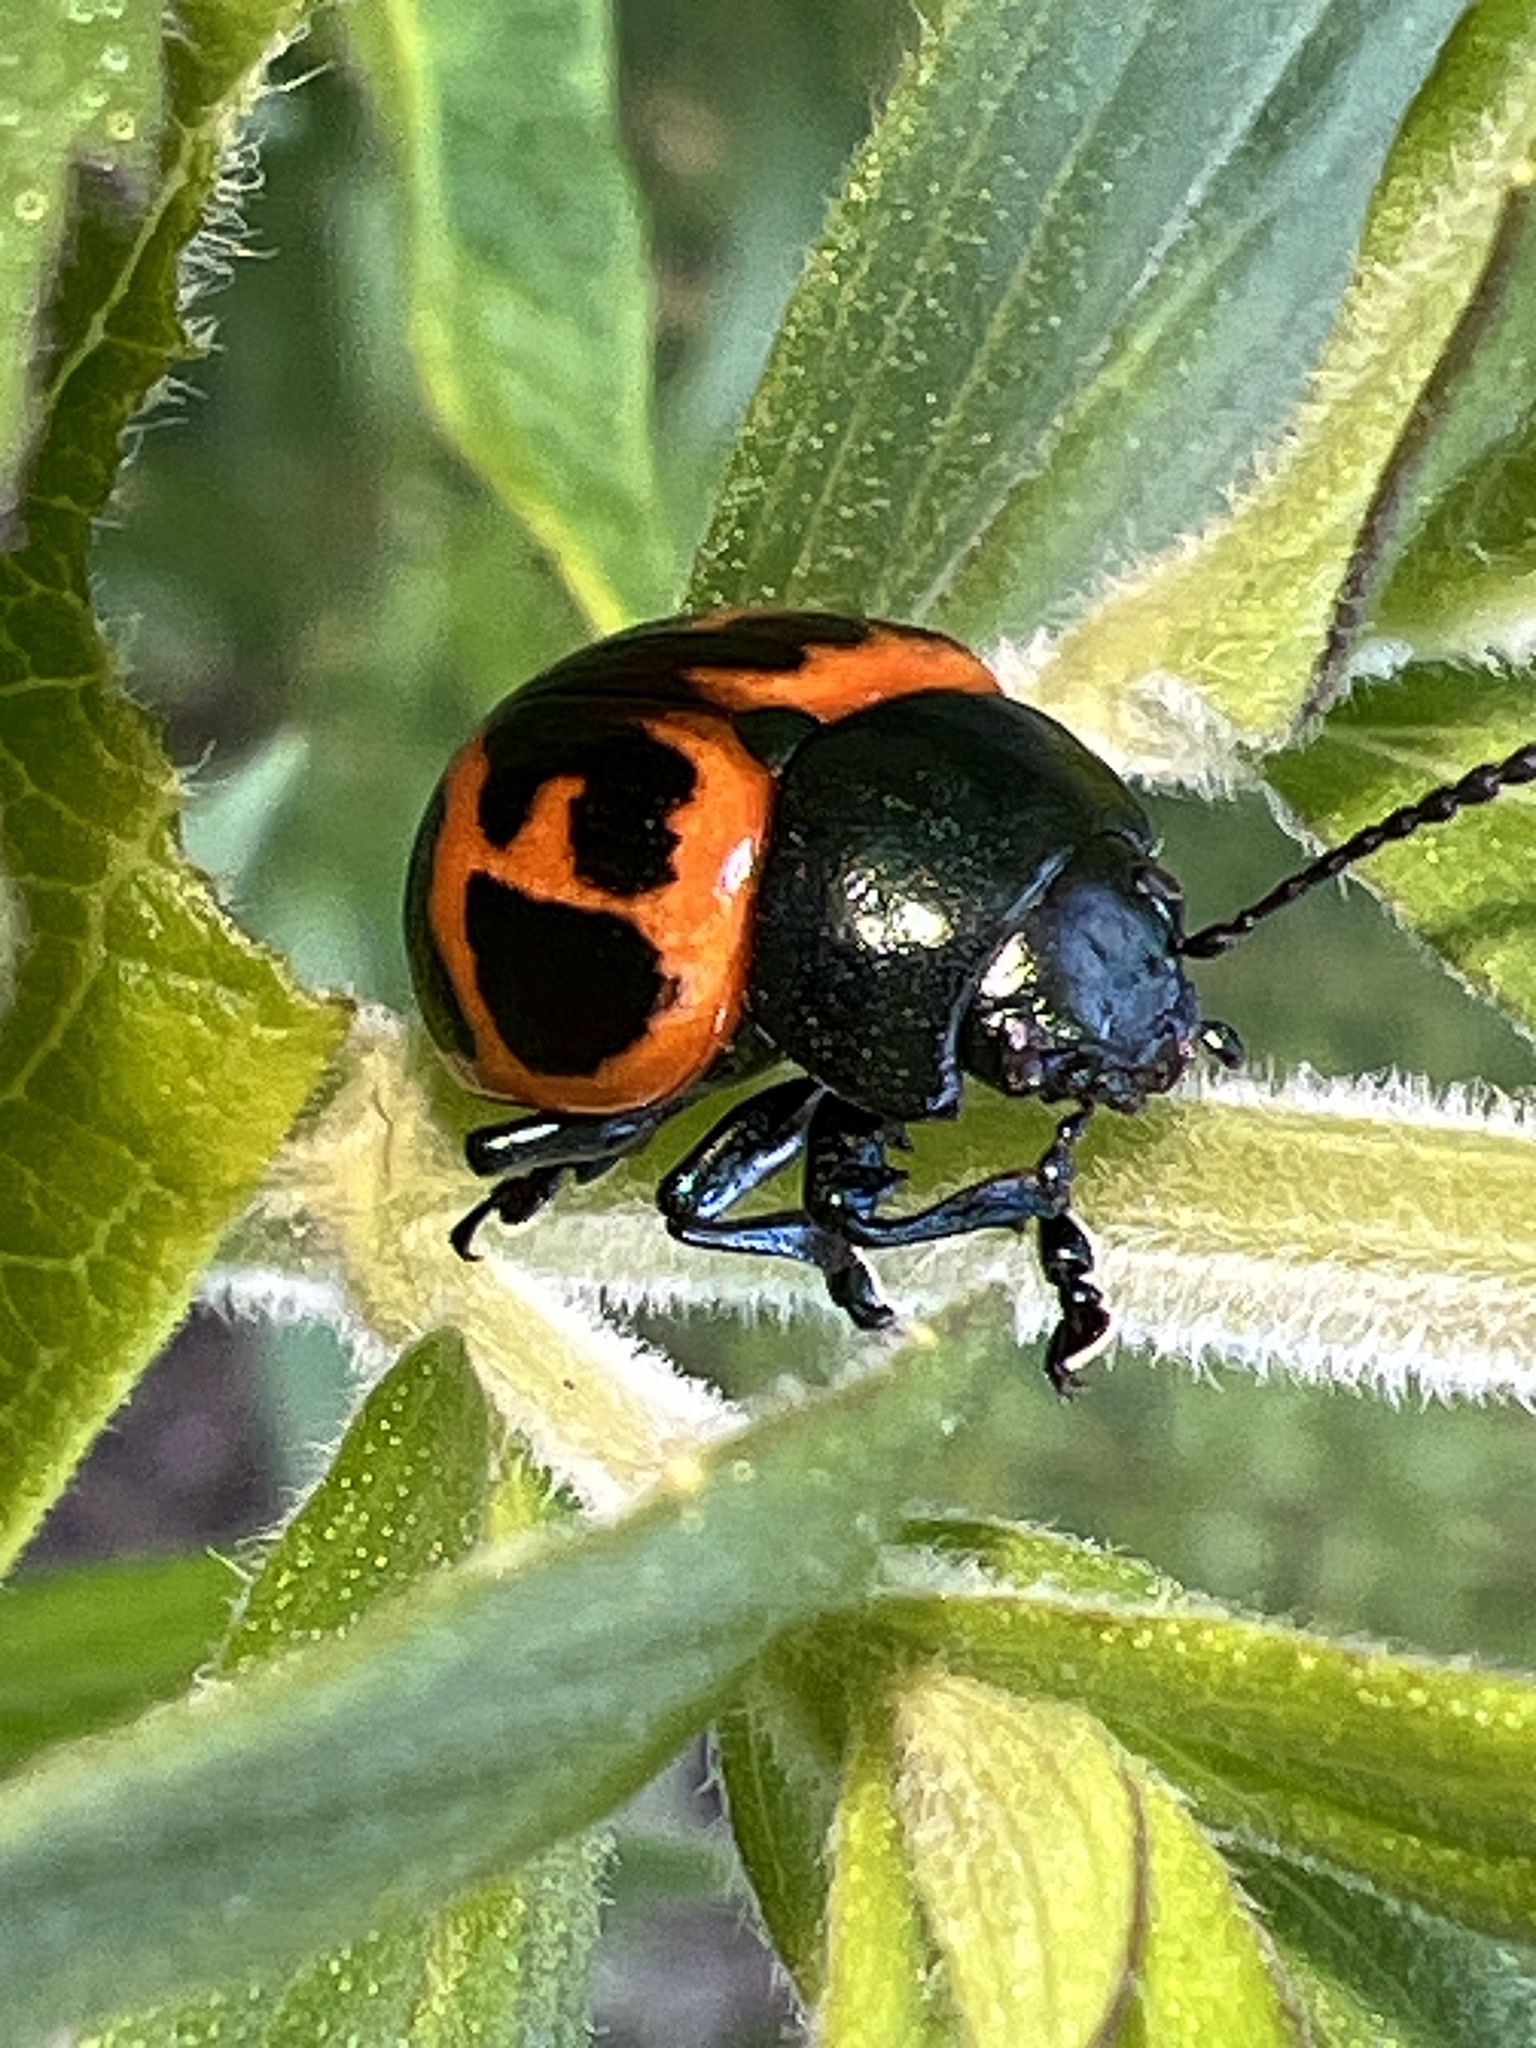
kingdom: Animalia
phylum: Arthropoda
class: Insecta
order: Coleoptera
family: Chrysomelidae
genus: Labidomera
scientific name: Labidomera clivicollis
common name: Swamp milkweed leaf beetle
